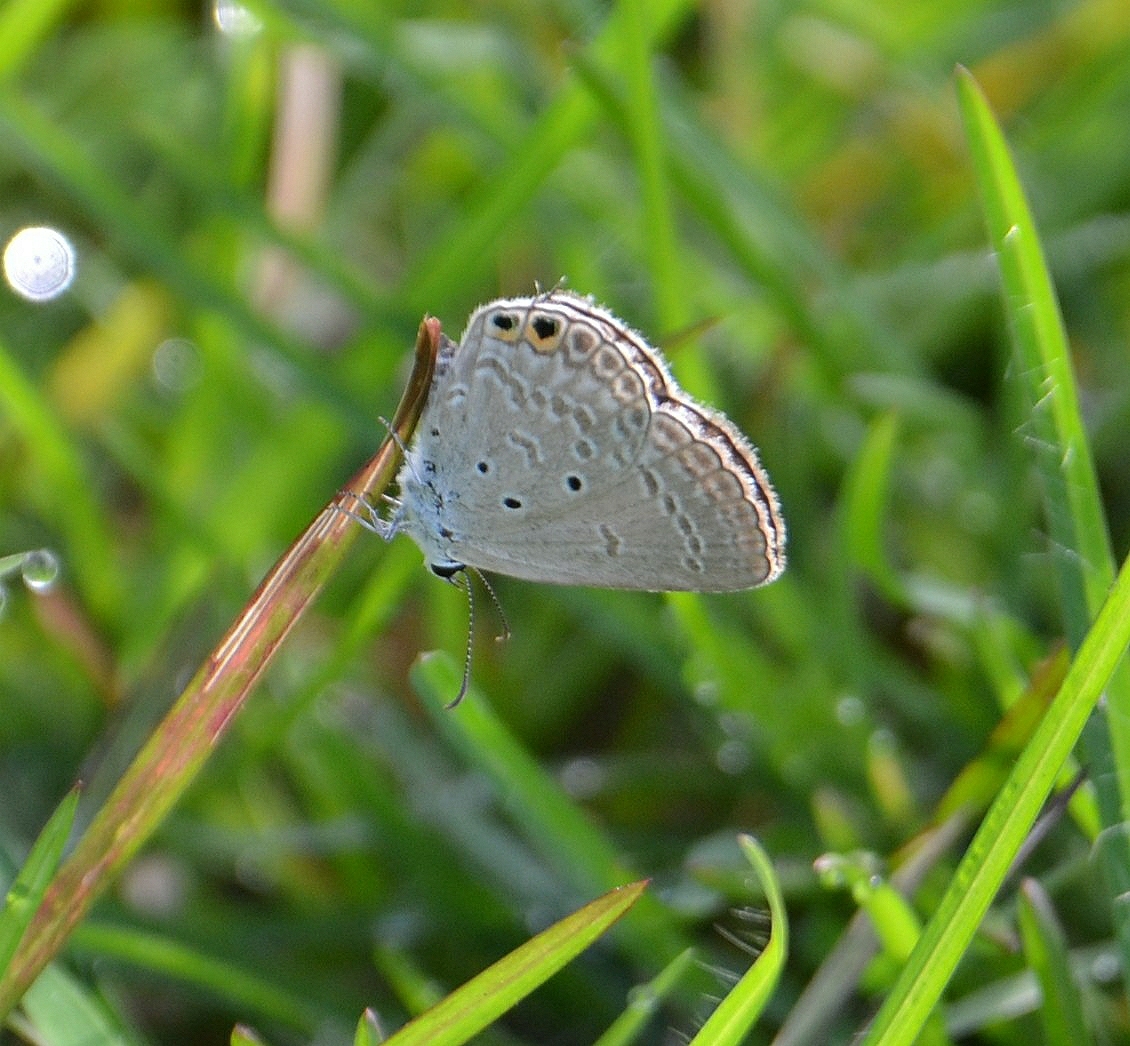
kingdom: Animalia
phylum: Arthropoda
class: Insecta
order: Lepidoptera
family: Lycaenidae
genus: Euchrysops
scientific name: Euchrysops cnejus
